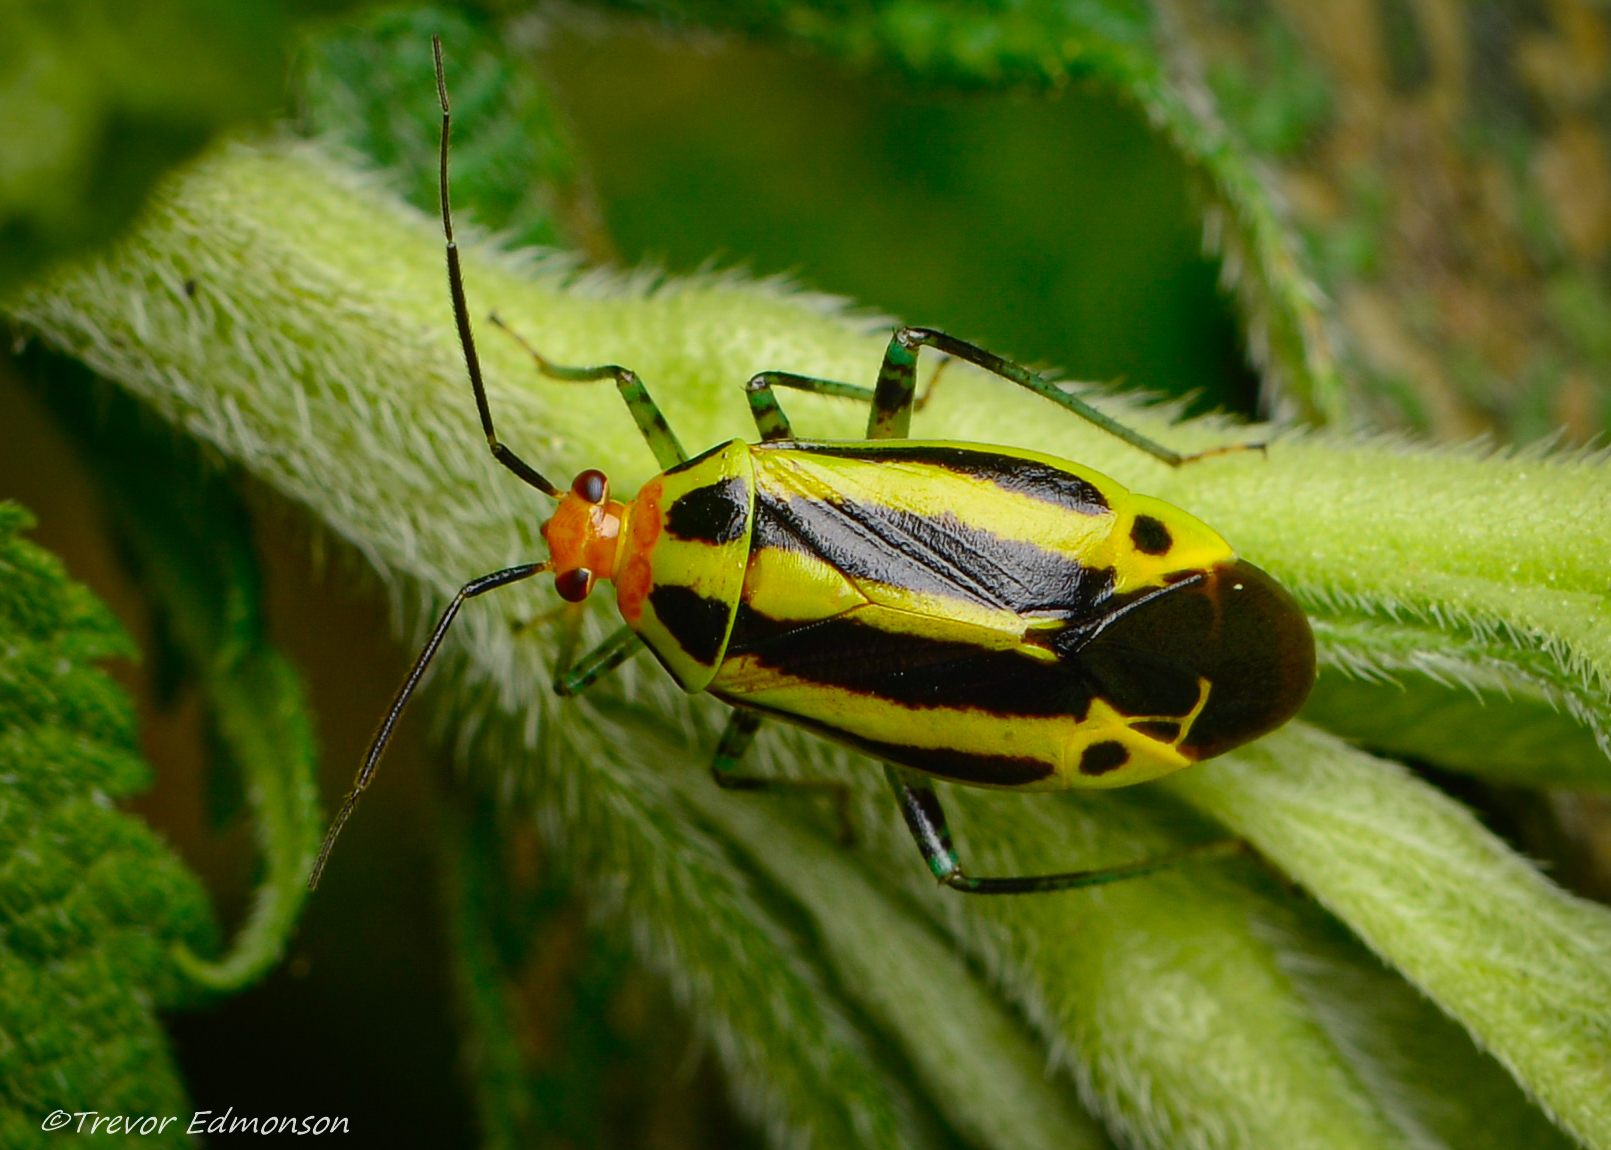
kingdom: Animalia
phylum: Arthropoda
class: Insecta
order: Hemiptera
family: Miridae
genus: Poecilocapsus
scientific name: Poecilocapsus lineatus
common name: Four-lined plant bug
